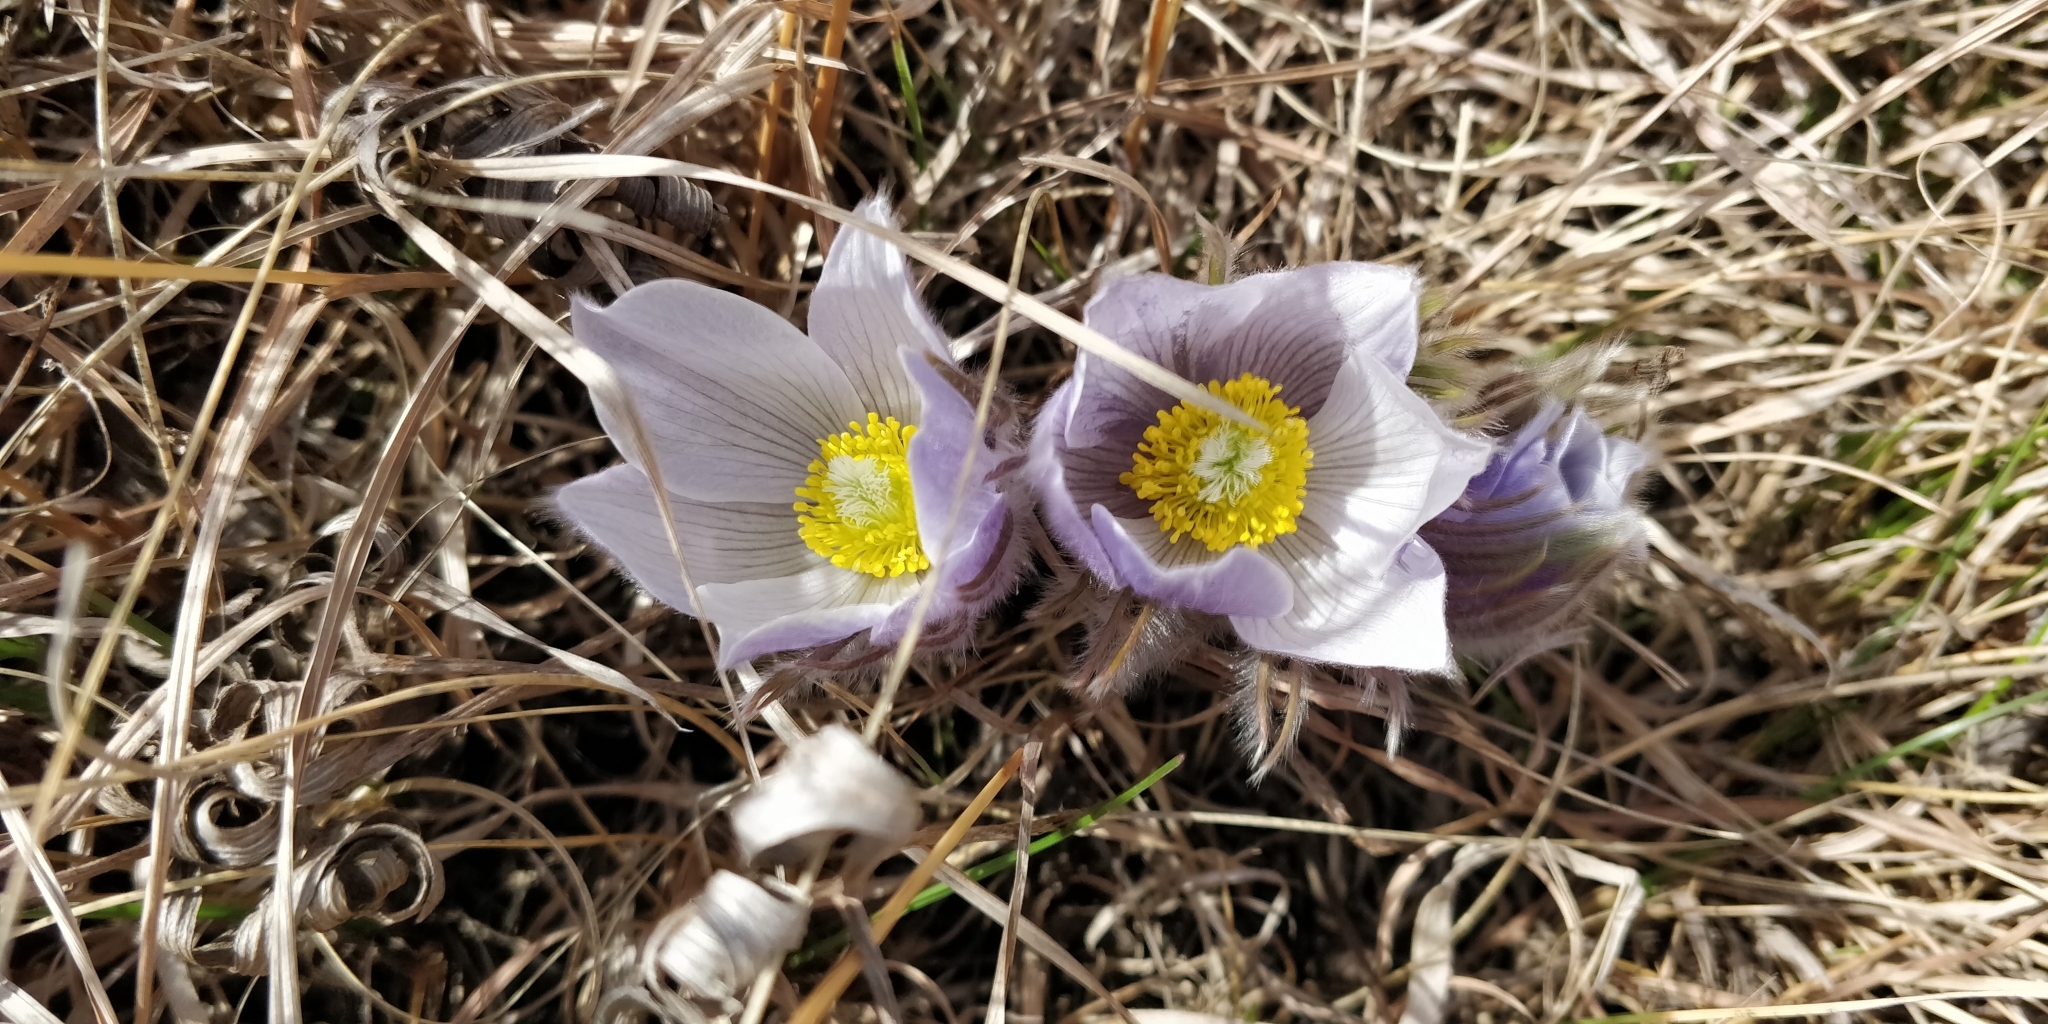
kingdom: Plantae
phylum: Tracheophyta
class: Magnoliopsida
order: Ranunculales
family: Ranunculaceae
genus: Pulsatilla
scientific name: Pulsatilla nuttalliana
